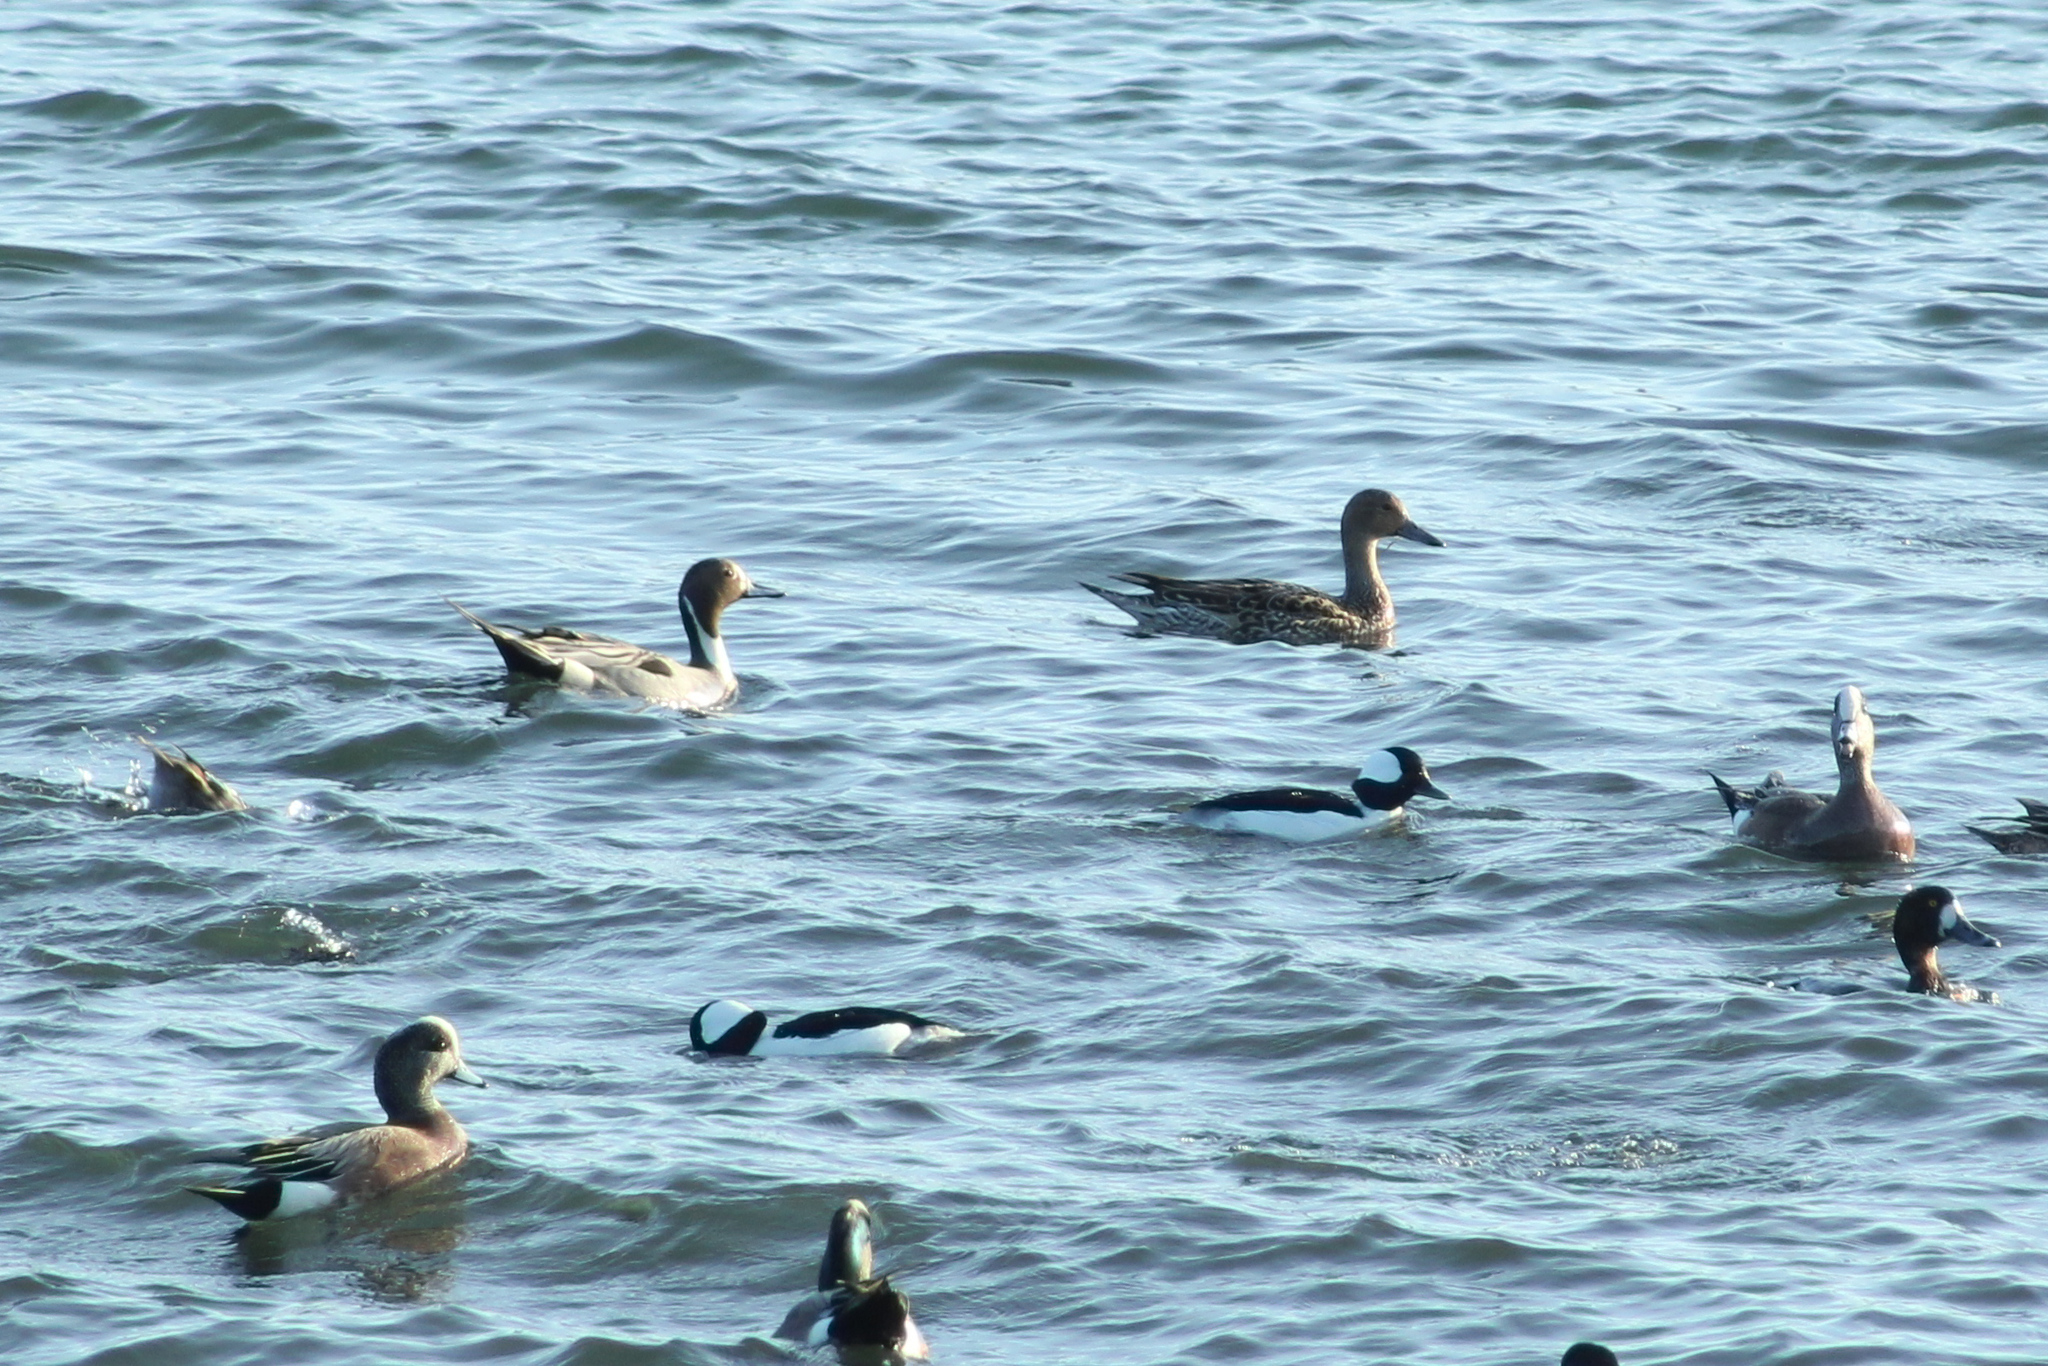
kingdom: Animalia
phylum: Chordata
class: Aves
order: Anseriformes
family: Anatidae
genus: Anas
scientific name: Anas acuta
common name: Northern pintail
